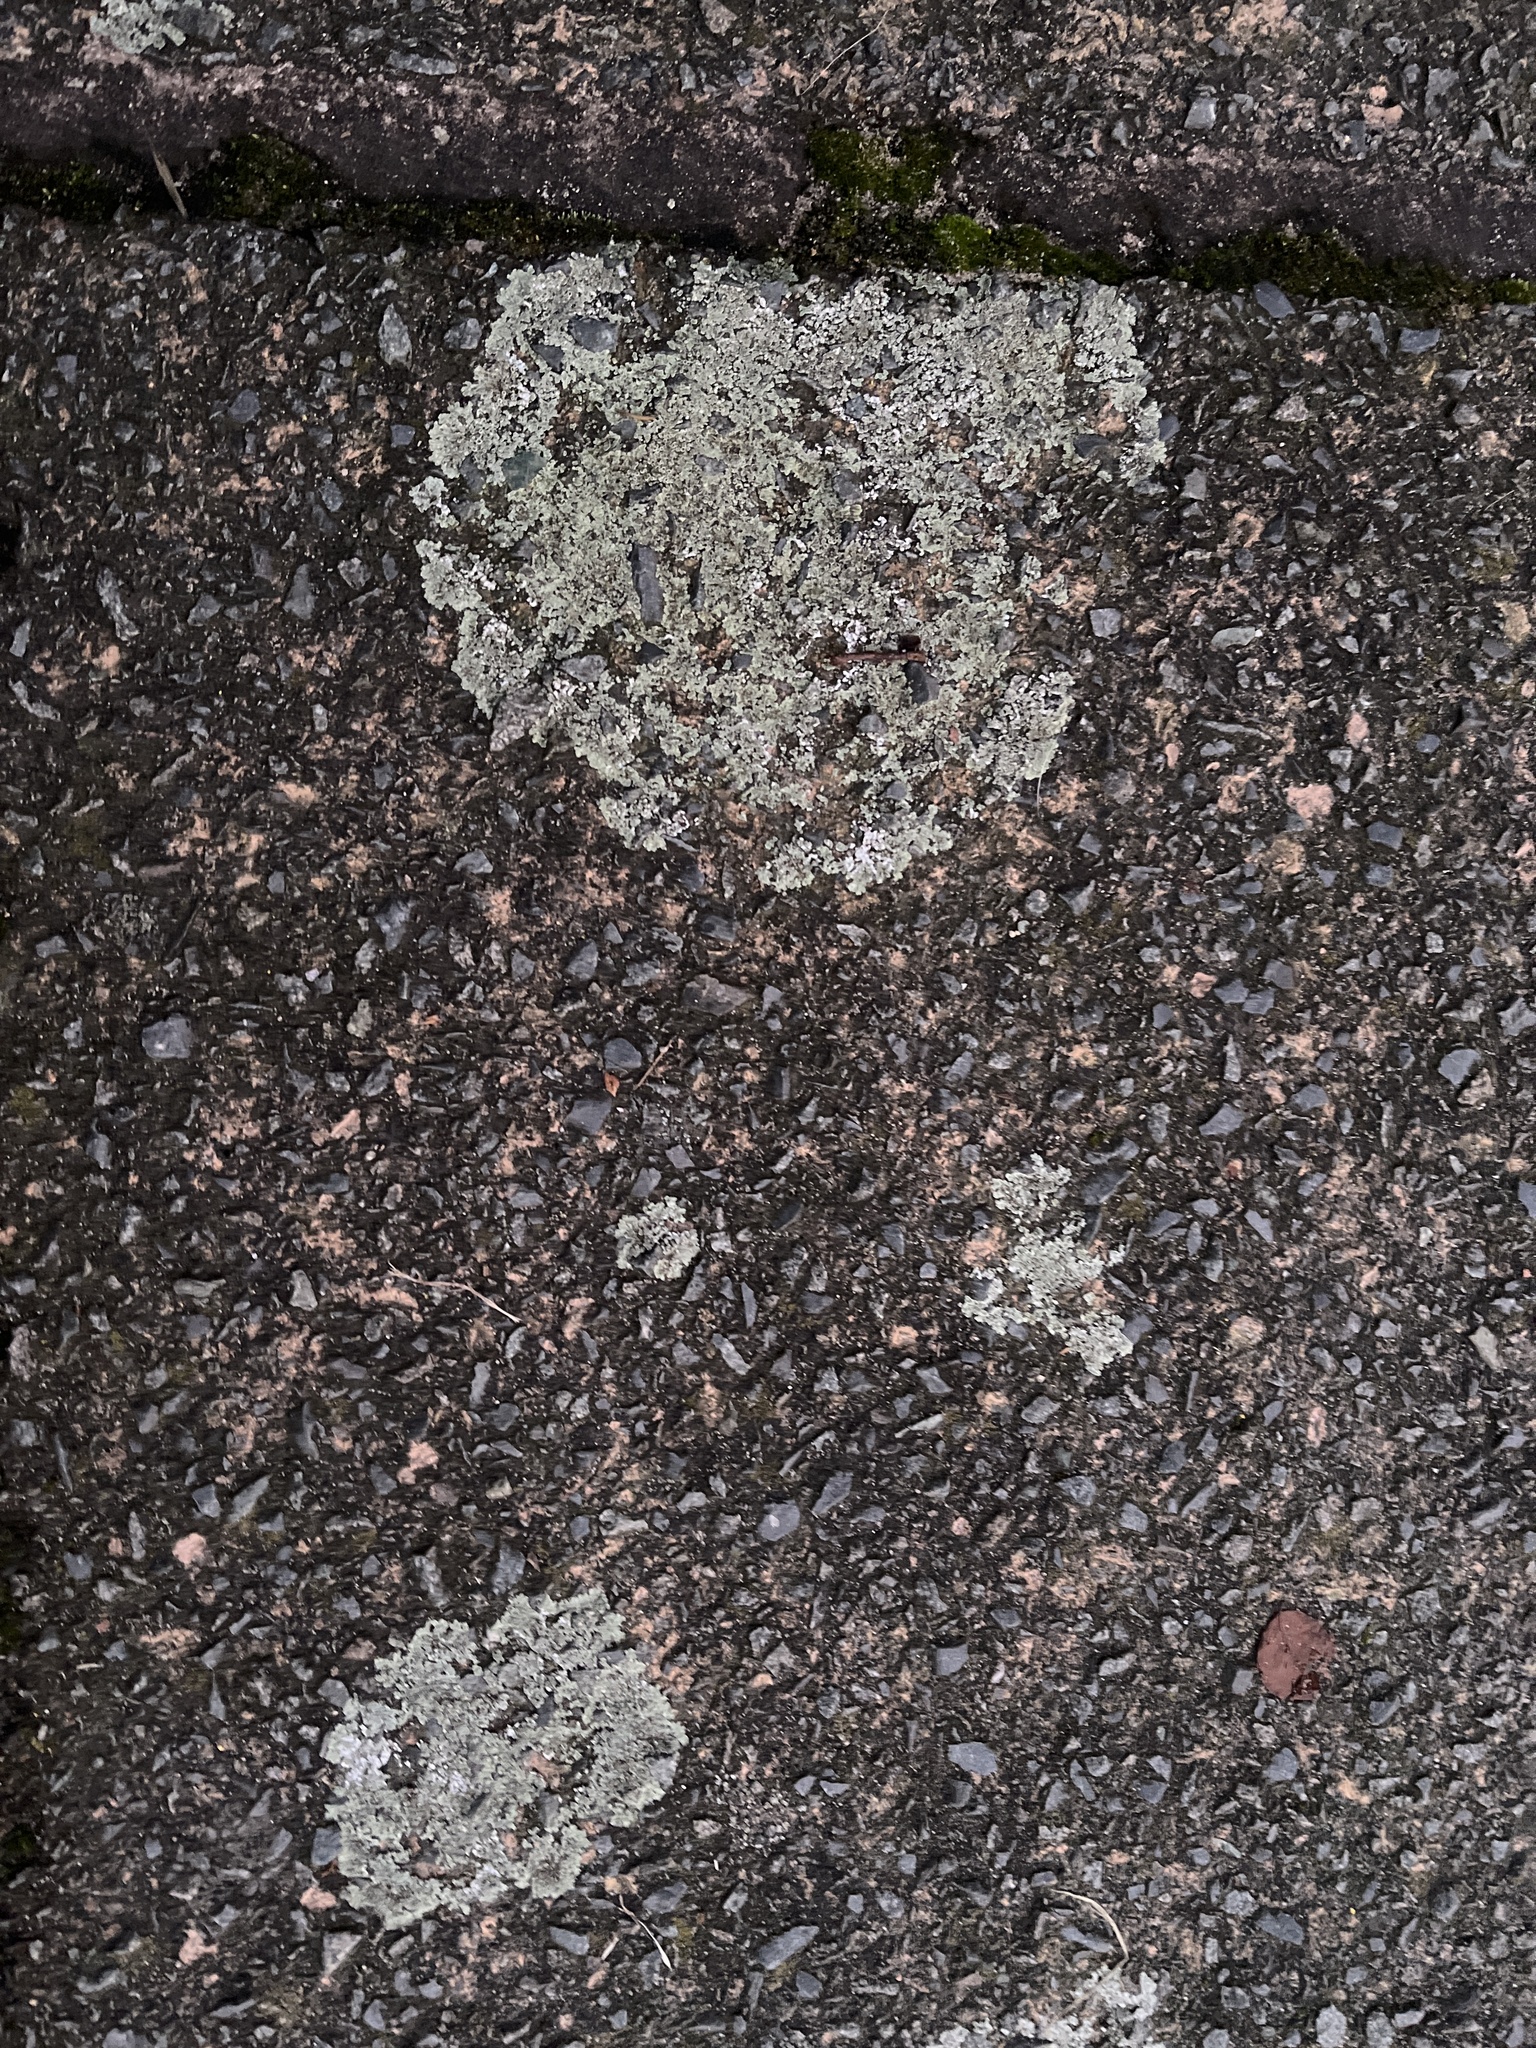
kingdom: Fungi
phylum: Ascomycota
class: Lecanoromycetes
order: Lecanorales
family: Lecanoraceae
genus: Protoparmeliopsis
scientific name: Protoparmeliopsis muralis
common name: Stonewall rim lichen
